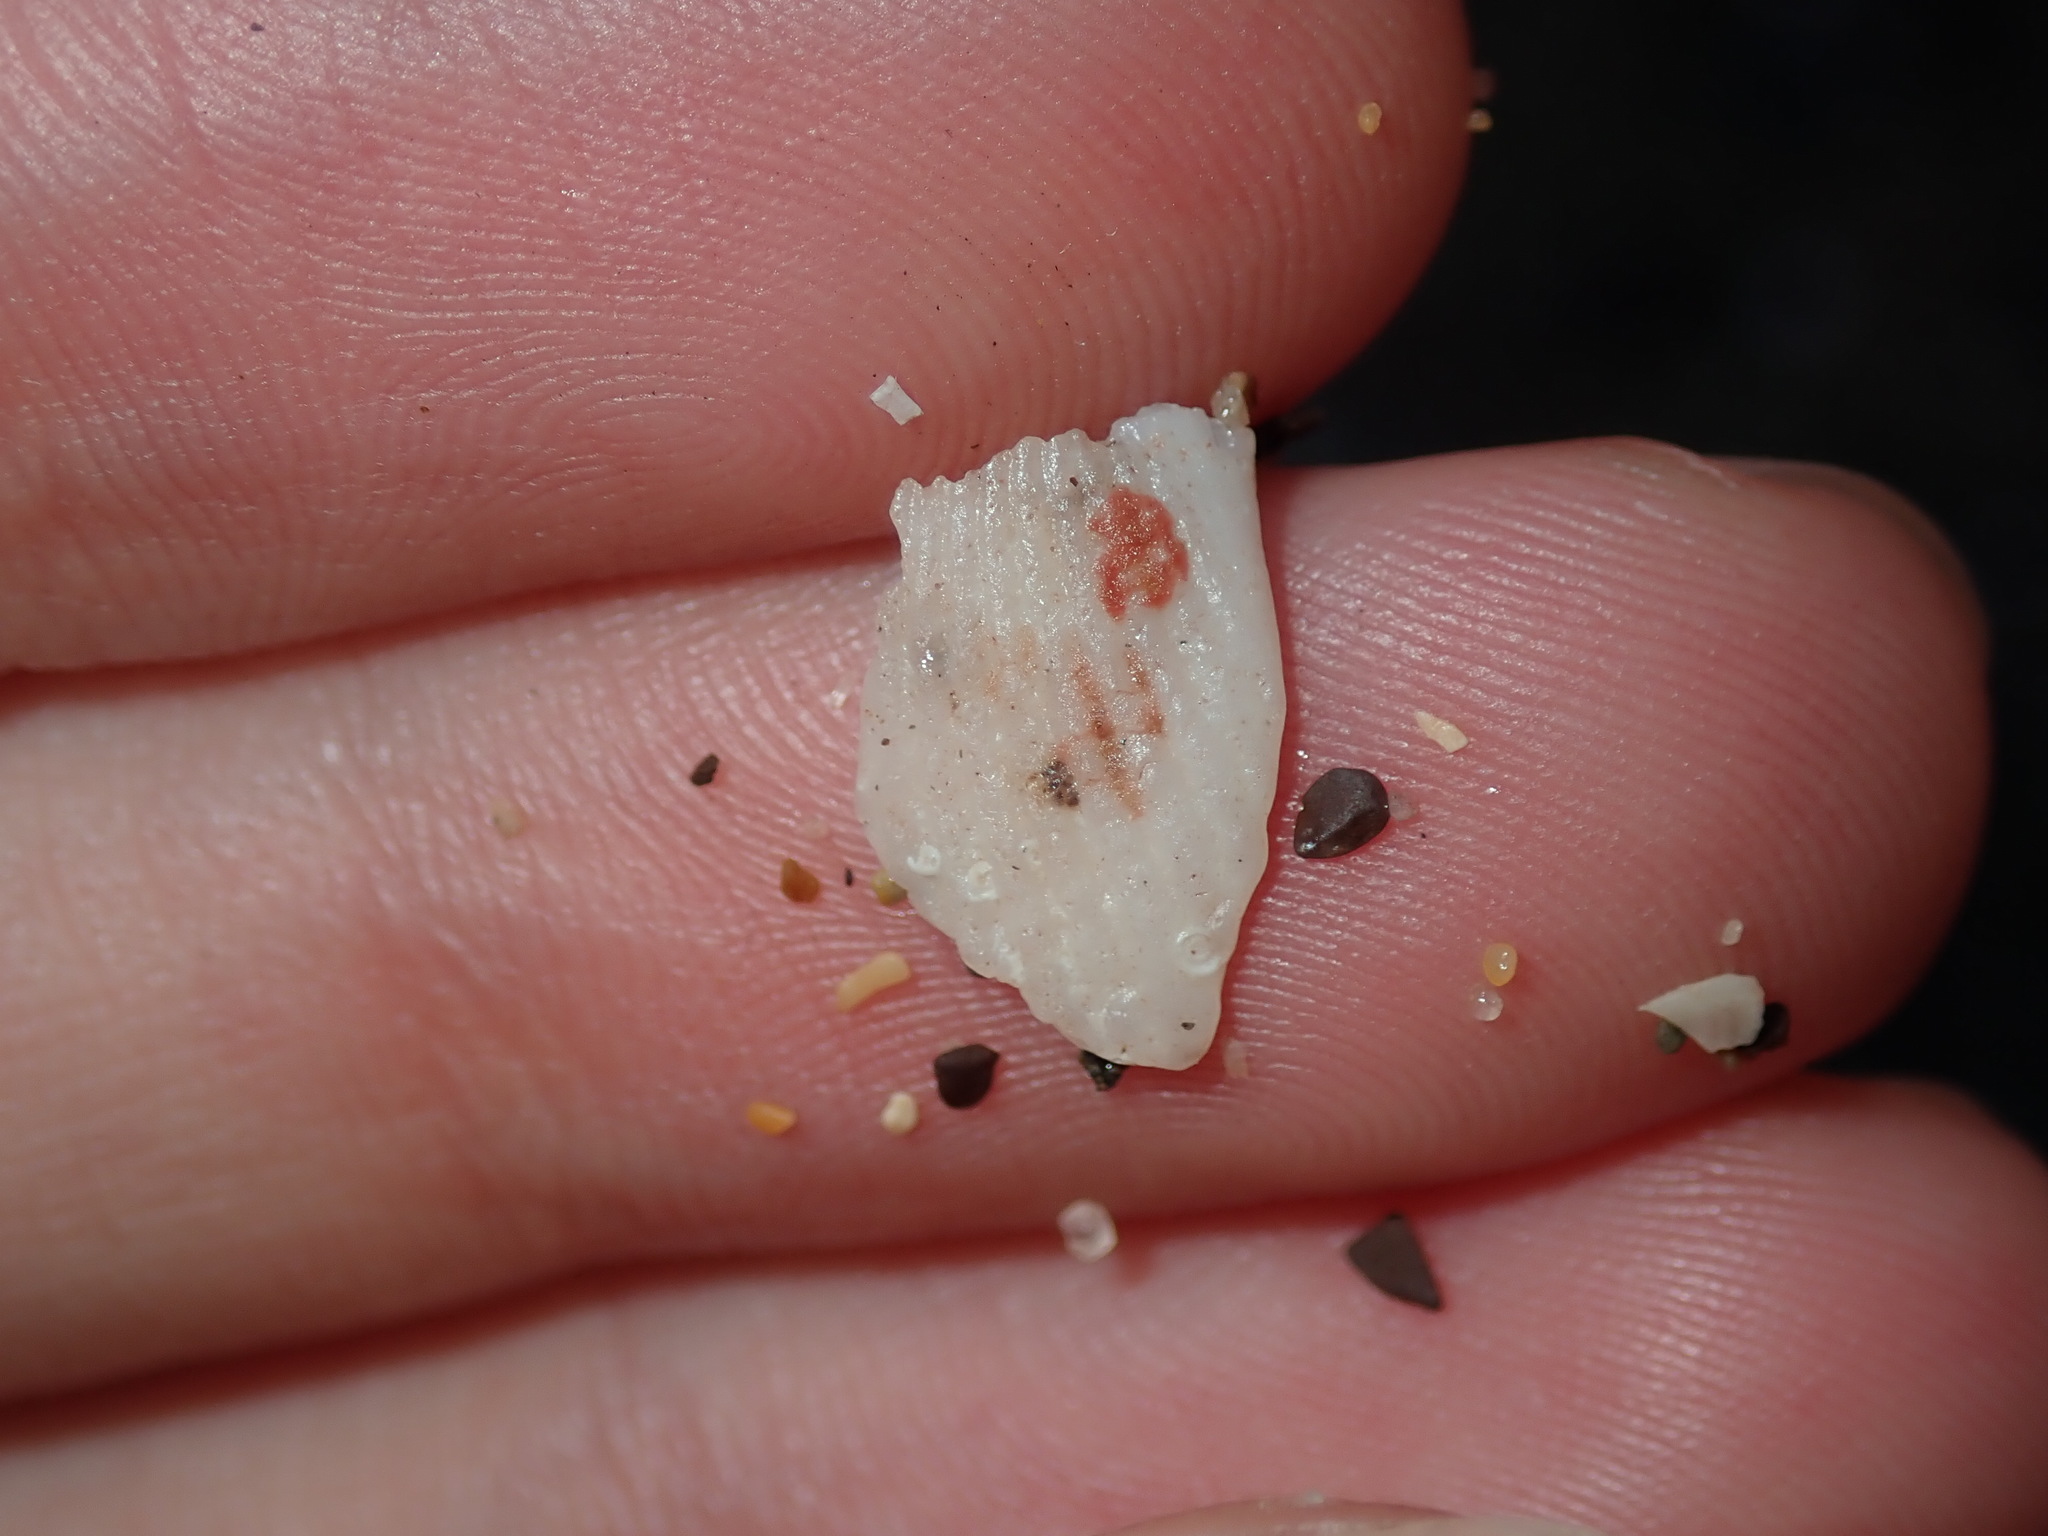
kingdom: Animalia
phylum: Mollusca
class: Bivalvia
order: Limida
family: Limidae
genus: Lima
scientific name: Lima nimbifer
